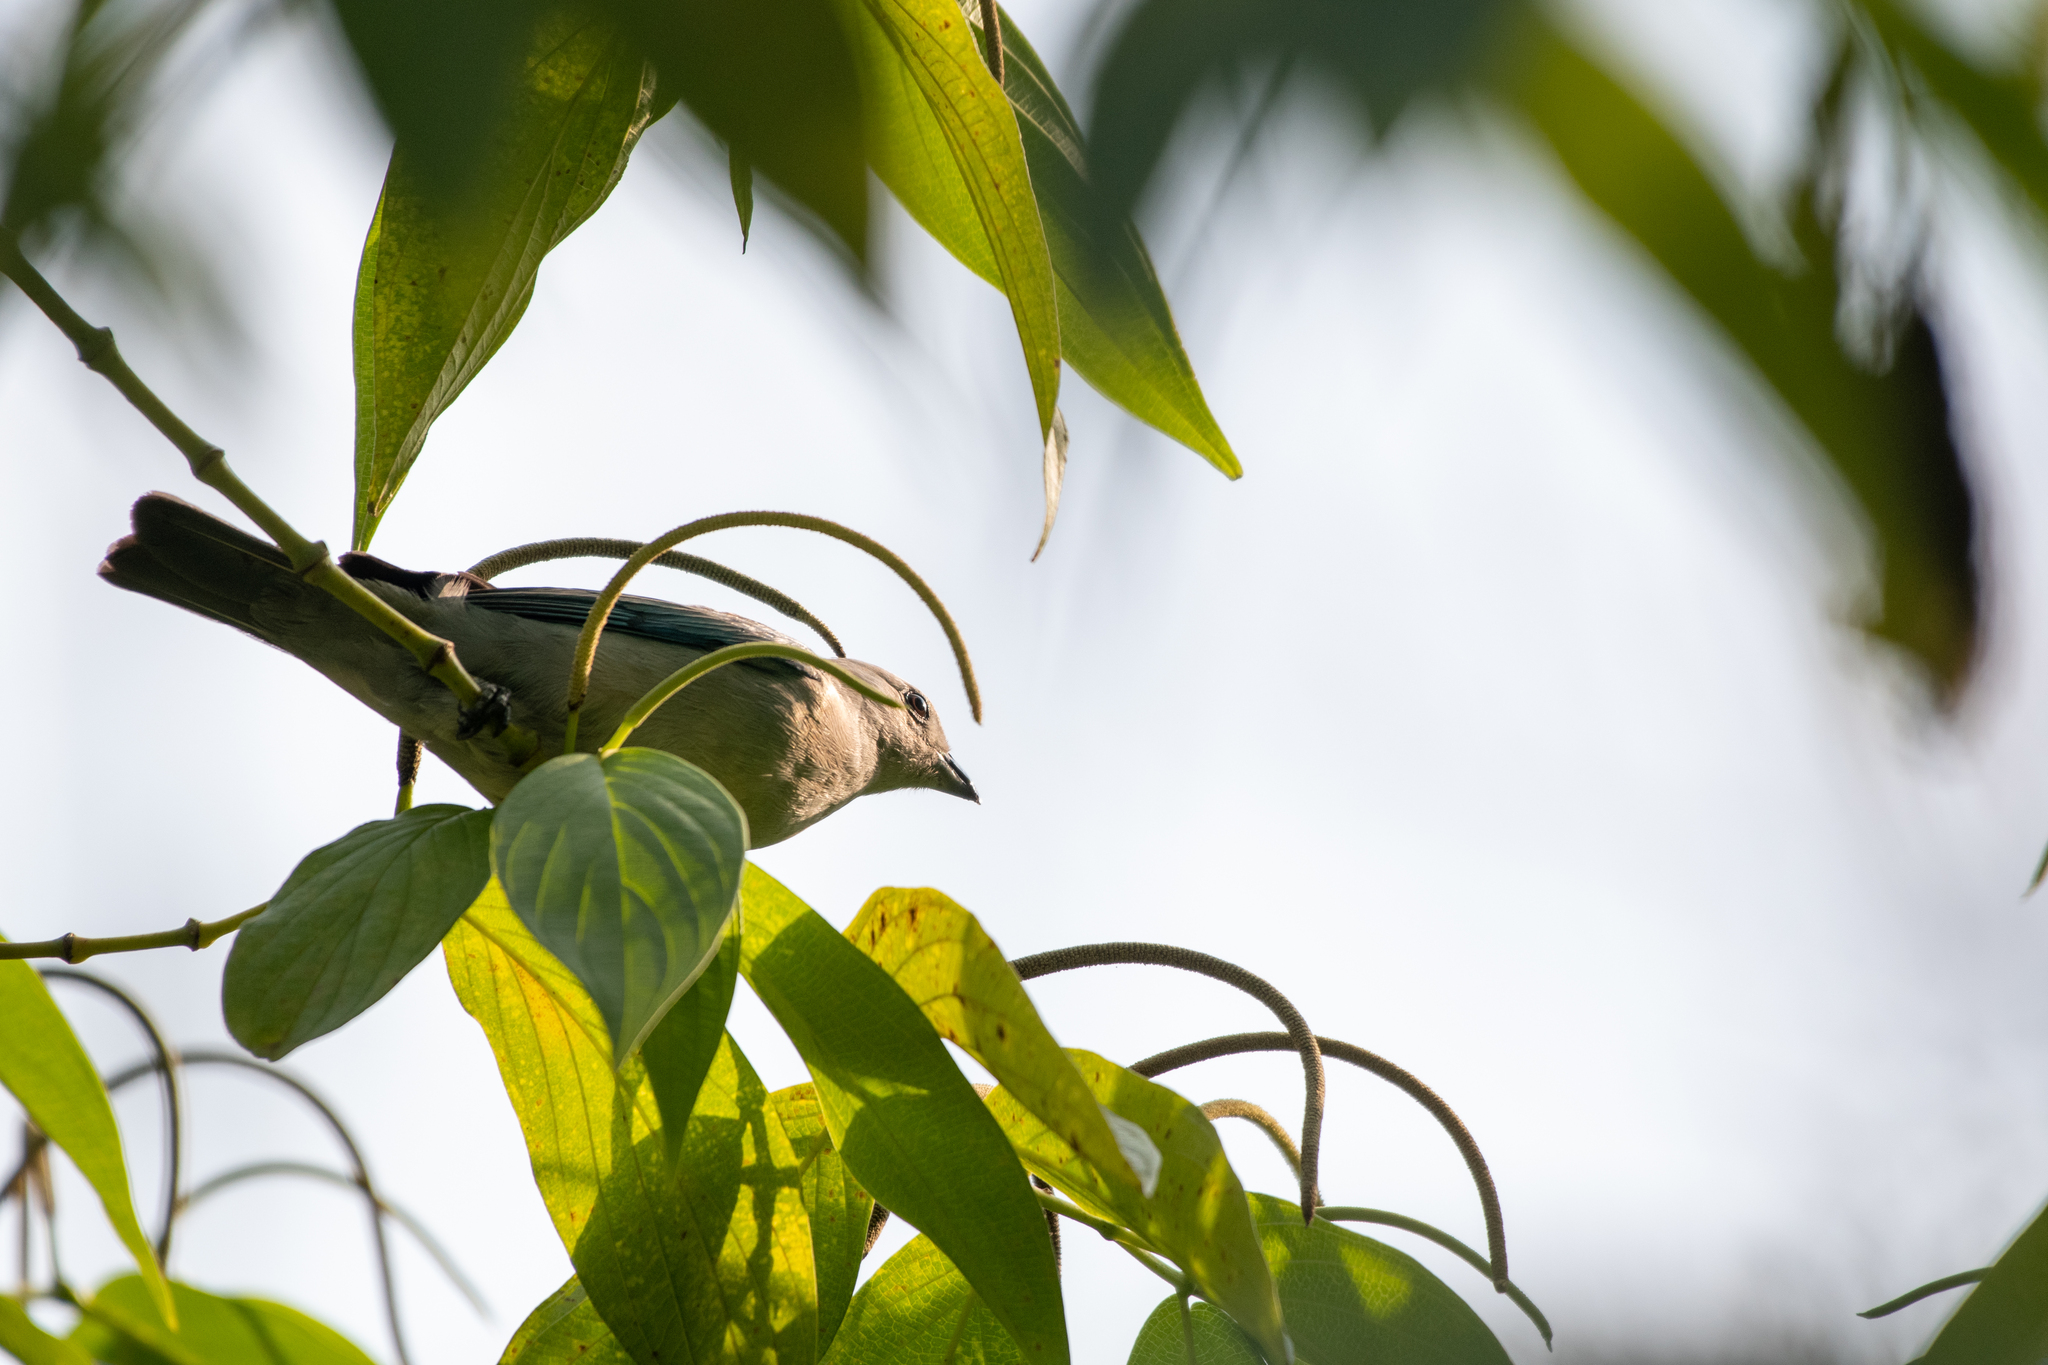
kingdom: Animalia
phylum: Chordata
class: Aves
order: Passeriformes
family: Thraupidae
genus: Thraupis
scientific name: Thraupis episcopus
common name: Blue-grey tanager
